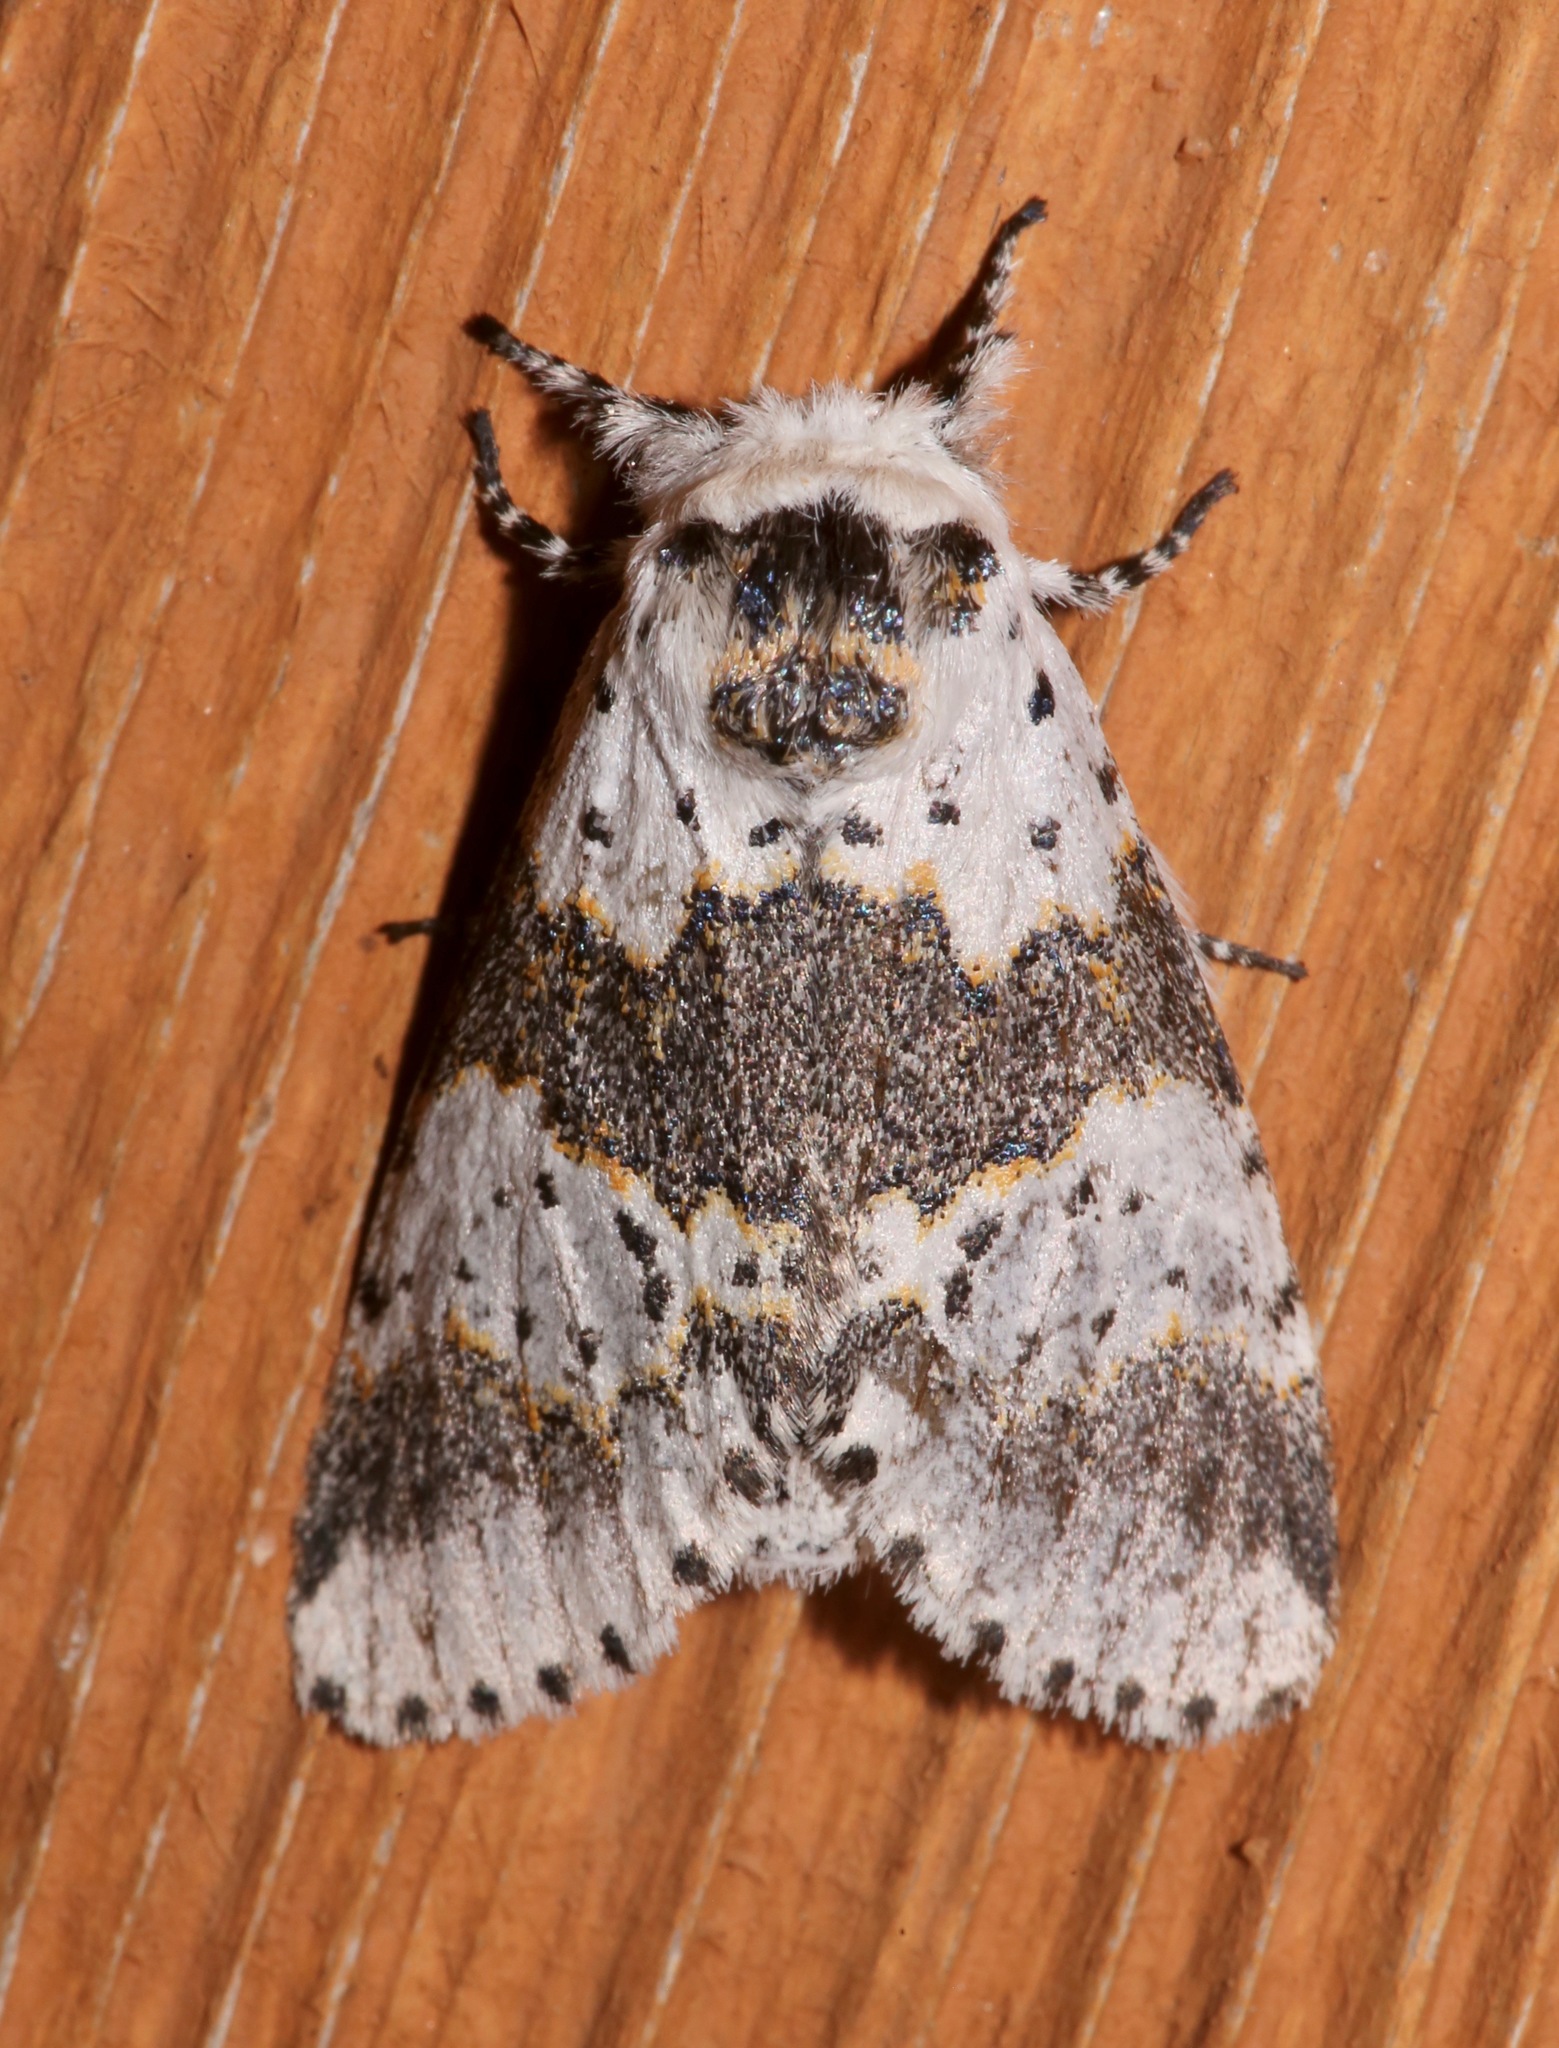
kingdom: Animalia
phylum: Arthropoda
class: Insecta
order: Lepidoptera
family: Notodontidae
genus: Furcula
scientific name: Furcula borealis
